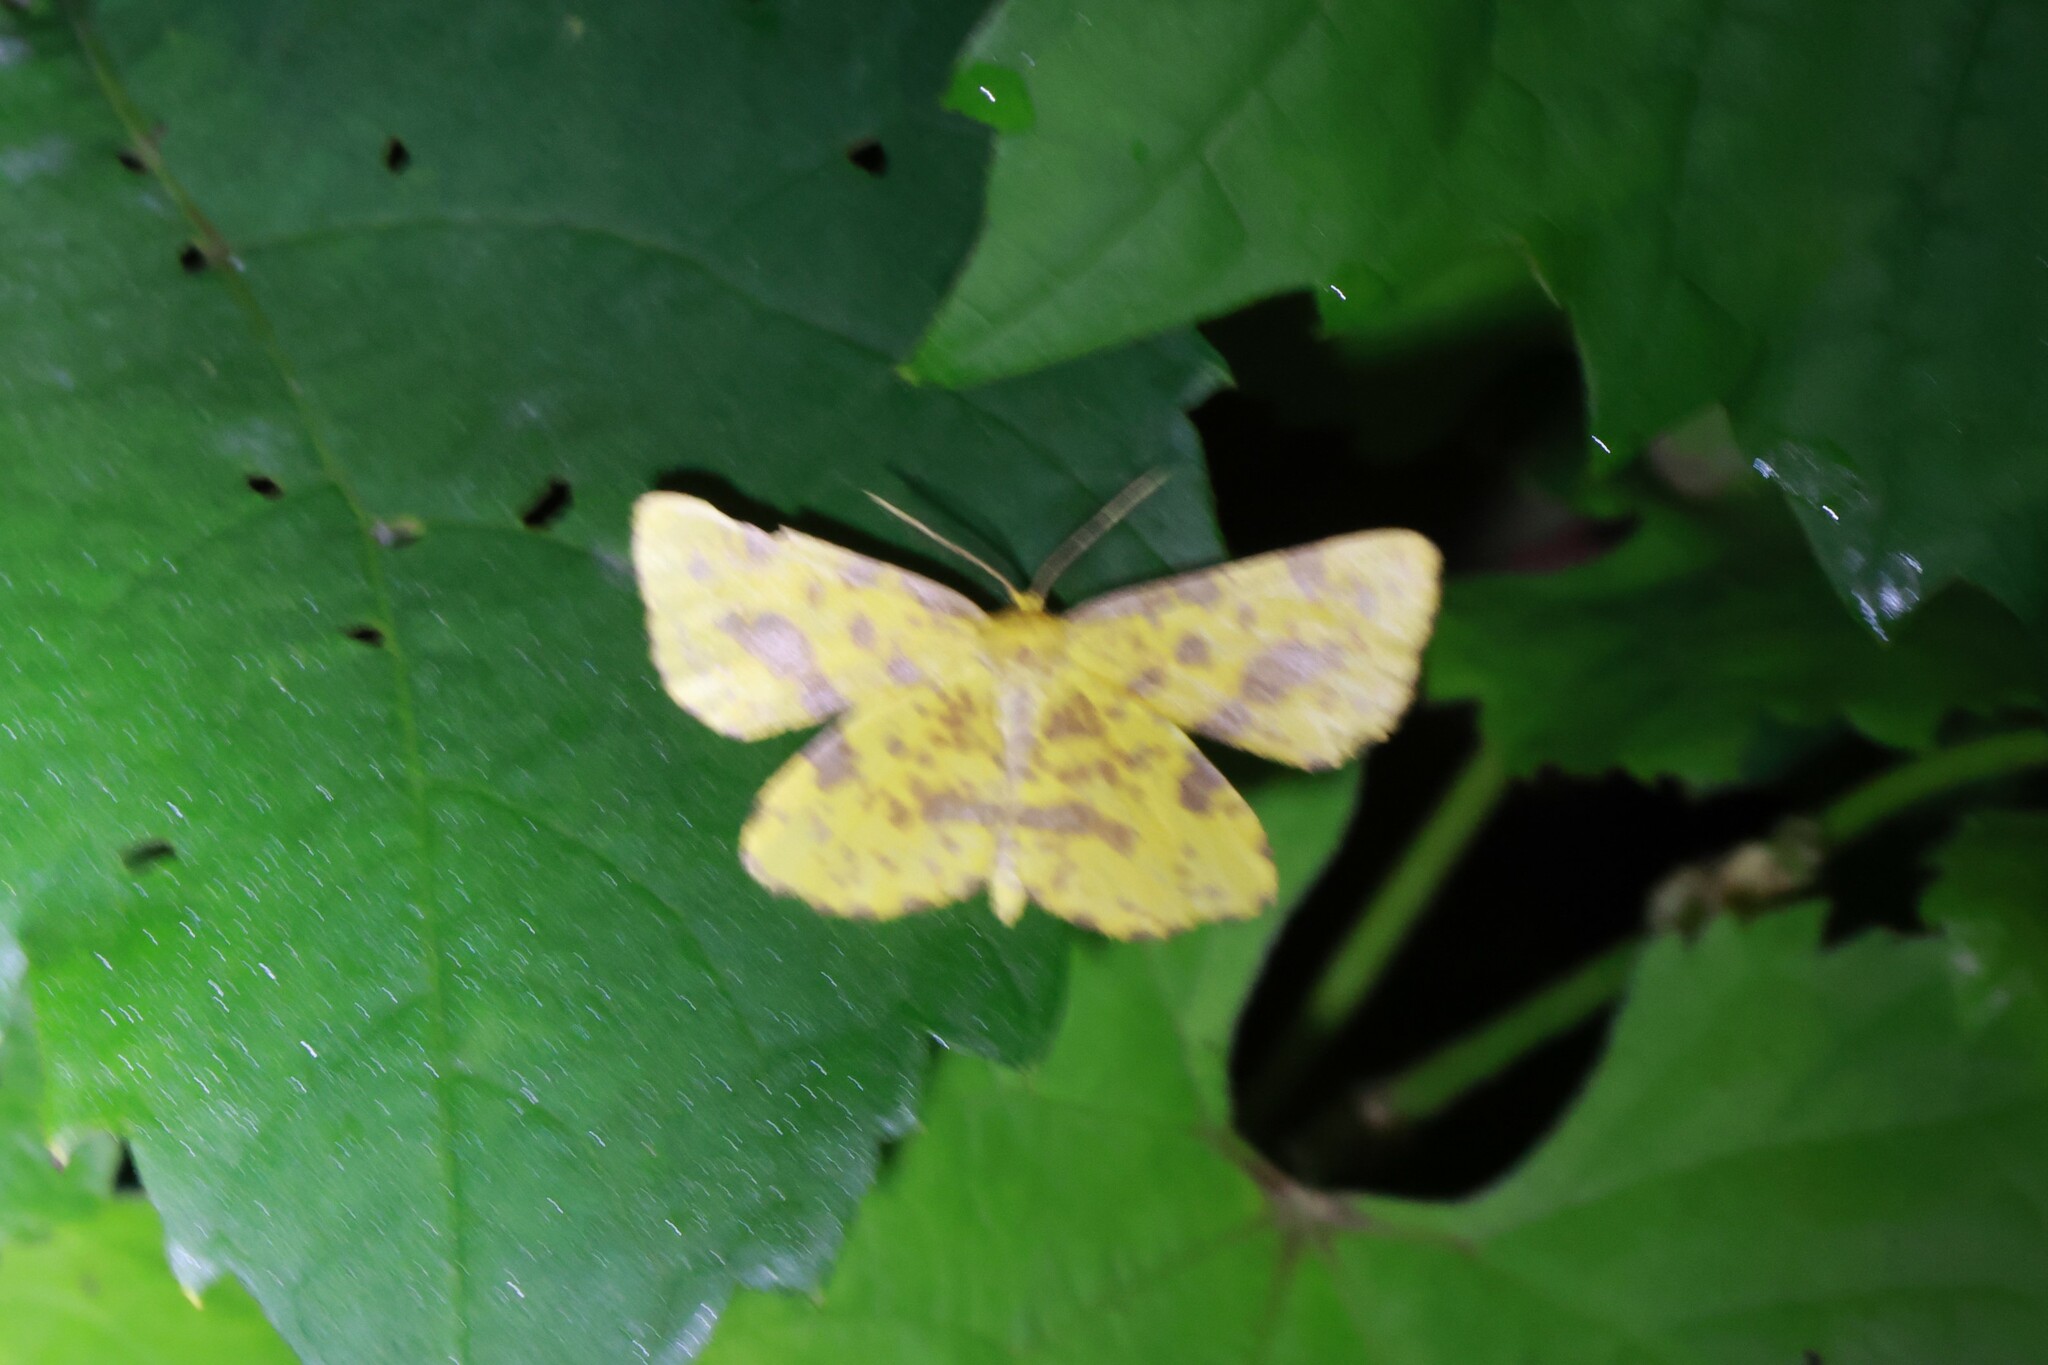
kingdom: Animalia
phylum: Arthropoda
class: Insecta
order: Lepidoptera
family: Geometridae
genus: Xanthotype
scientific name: Xanthotype
